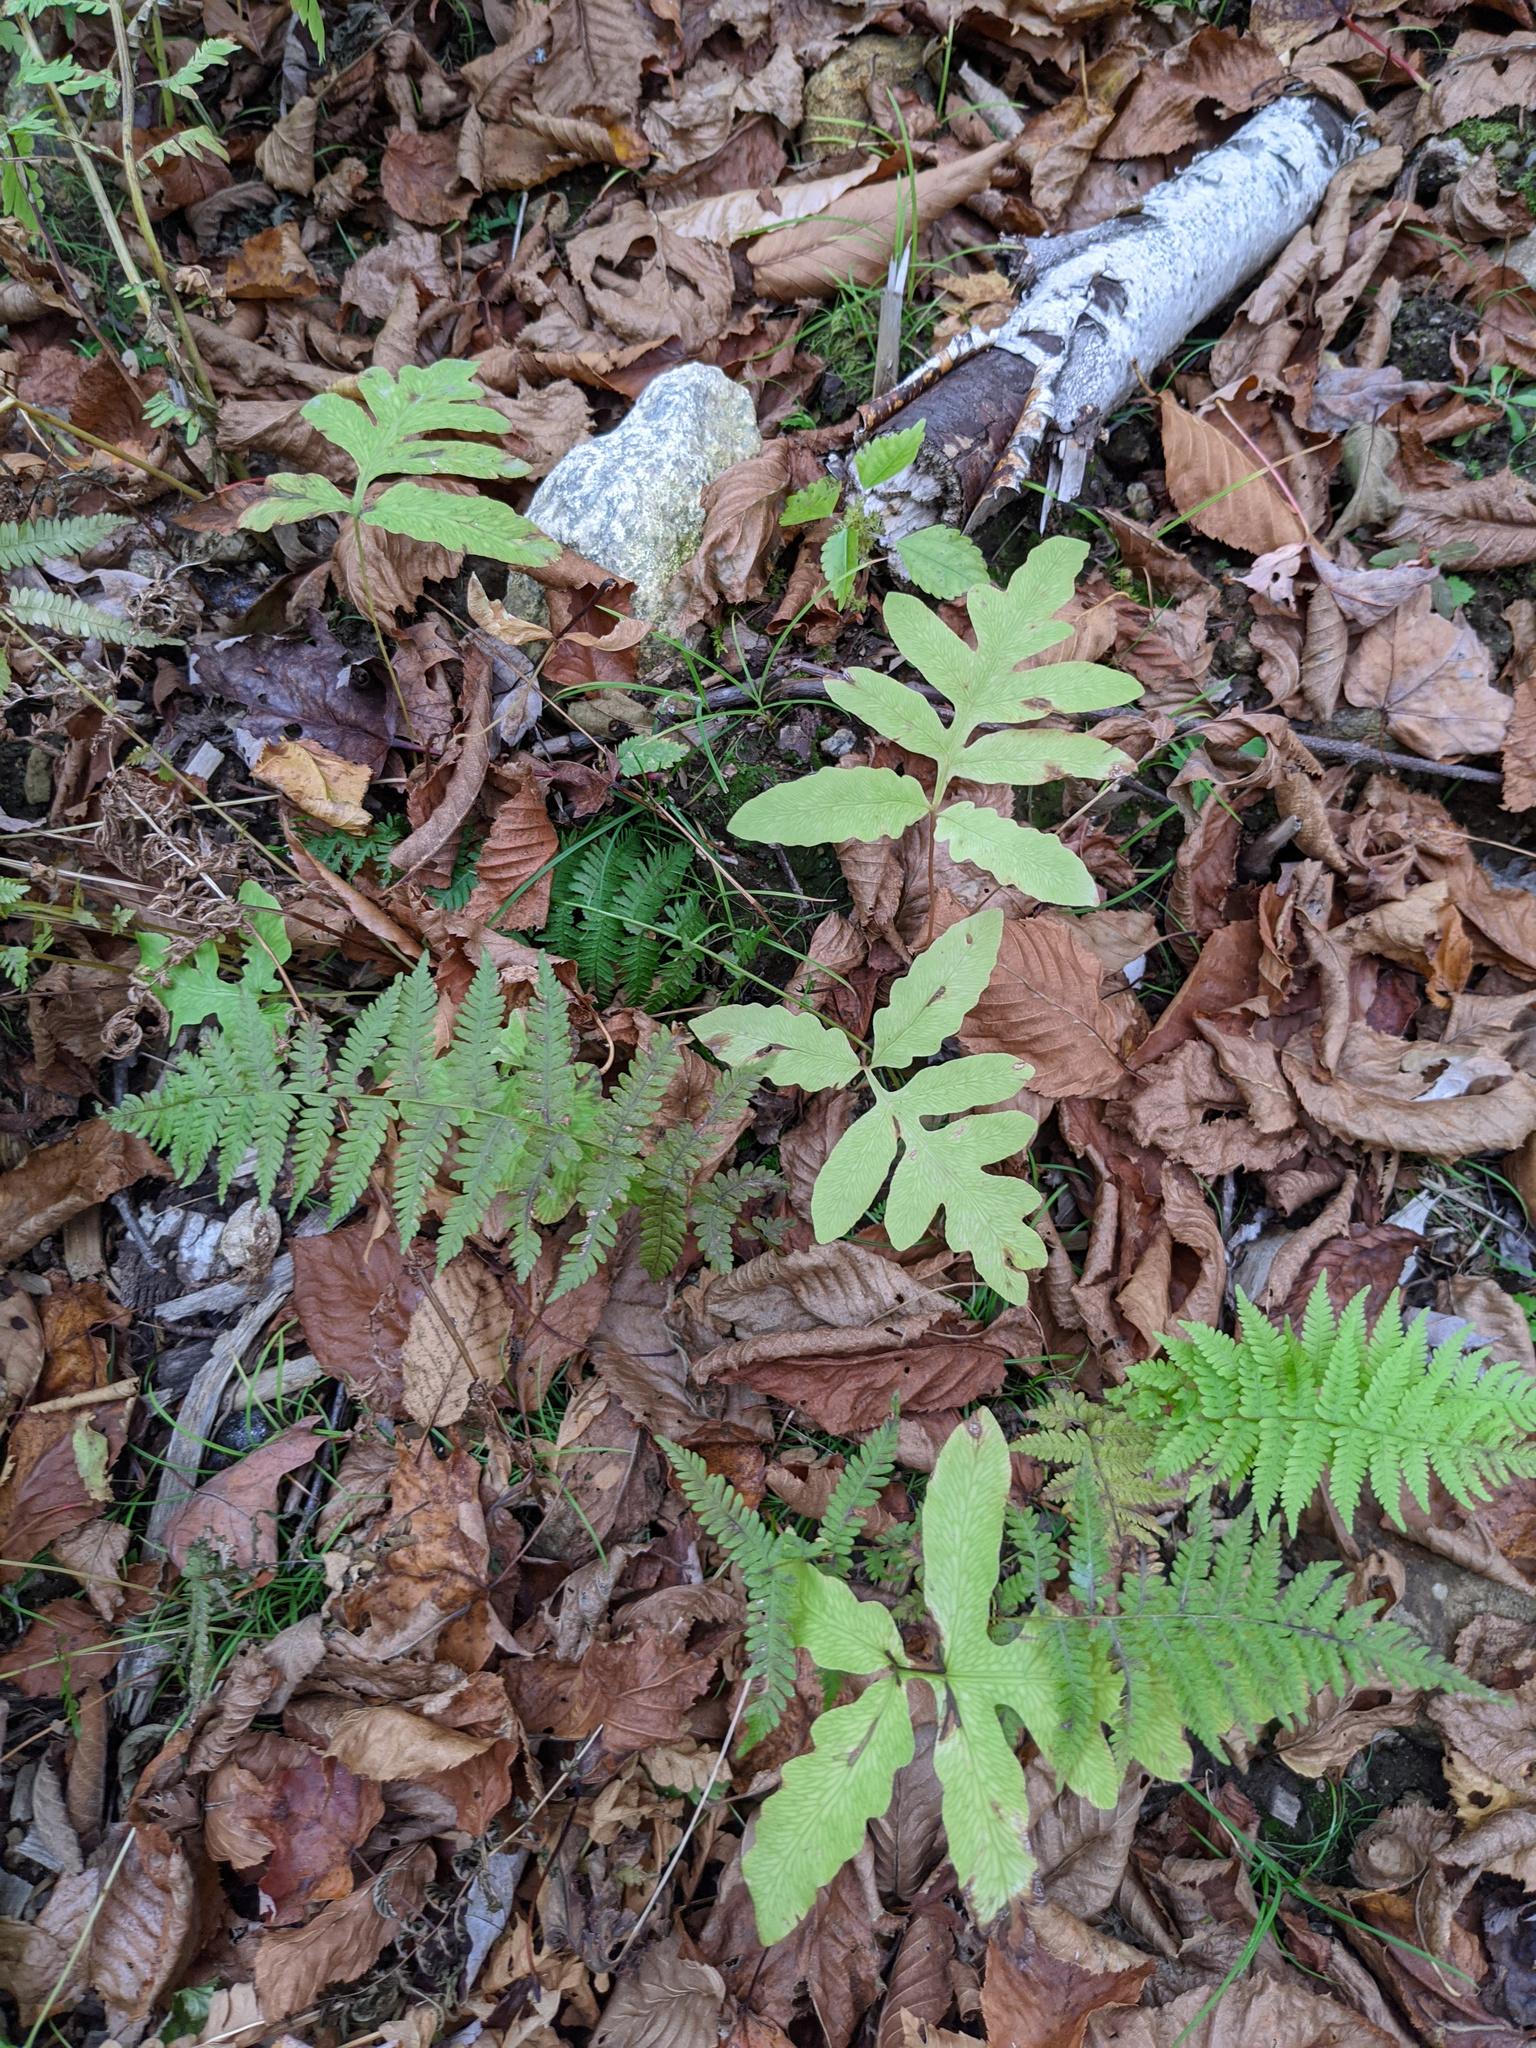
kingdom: Plantae
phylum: Tracheophyta
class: Polypodiopsida
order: Polypodiales
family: Onocleaceae
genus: Onoclea
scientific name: Onoclea sensibilis
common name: Sensitive fern
